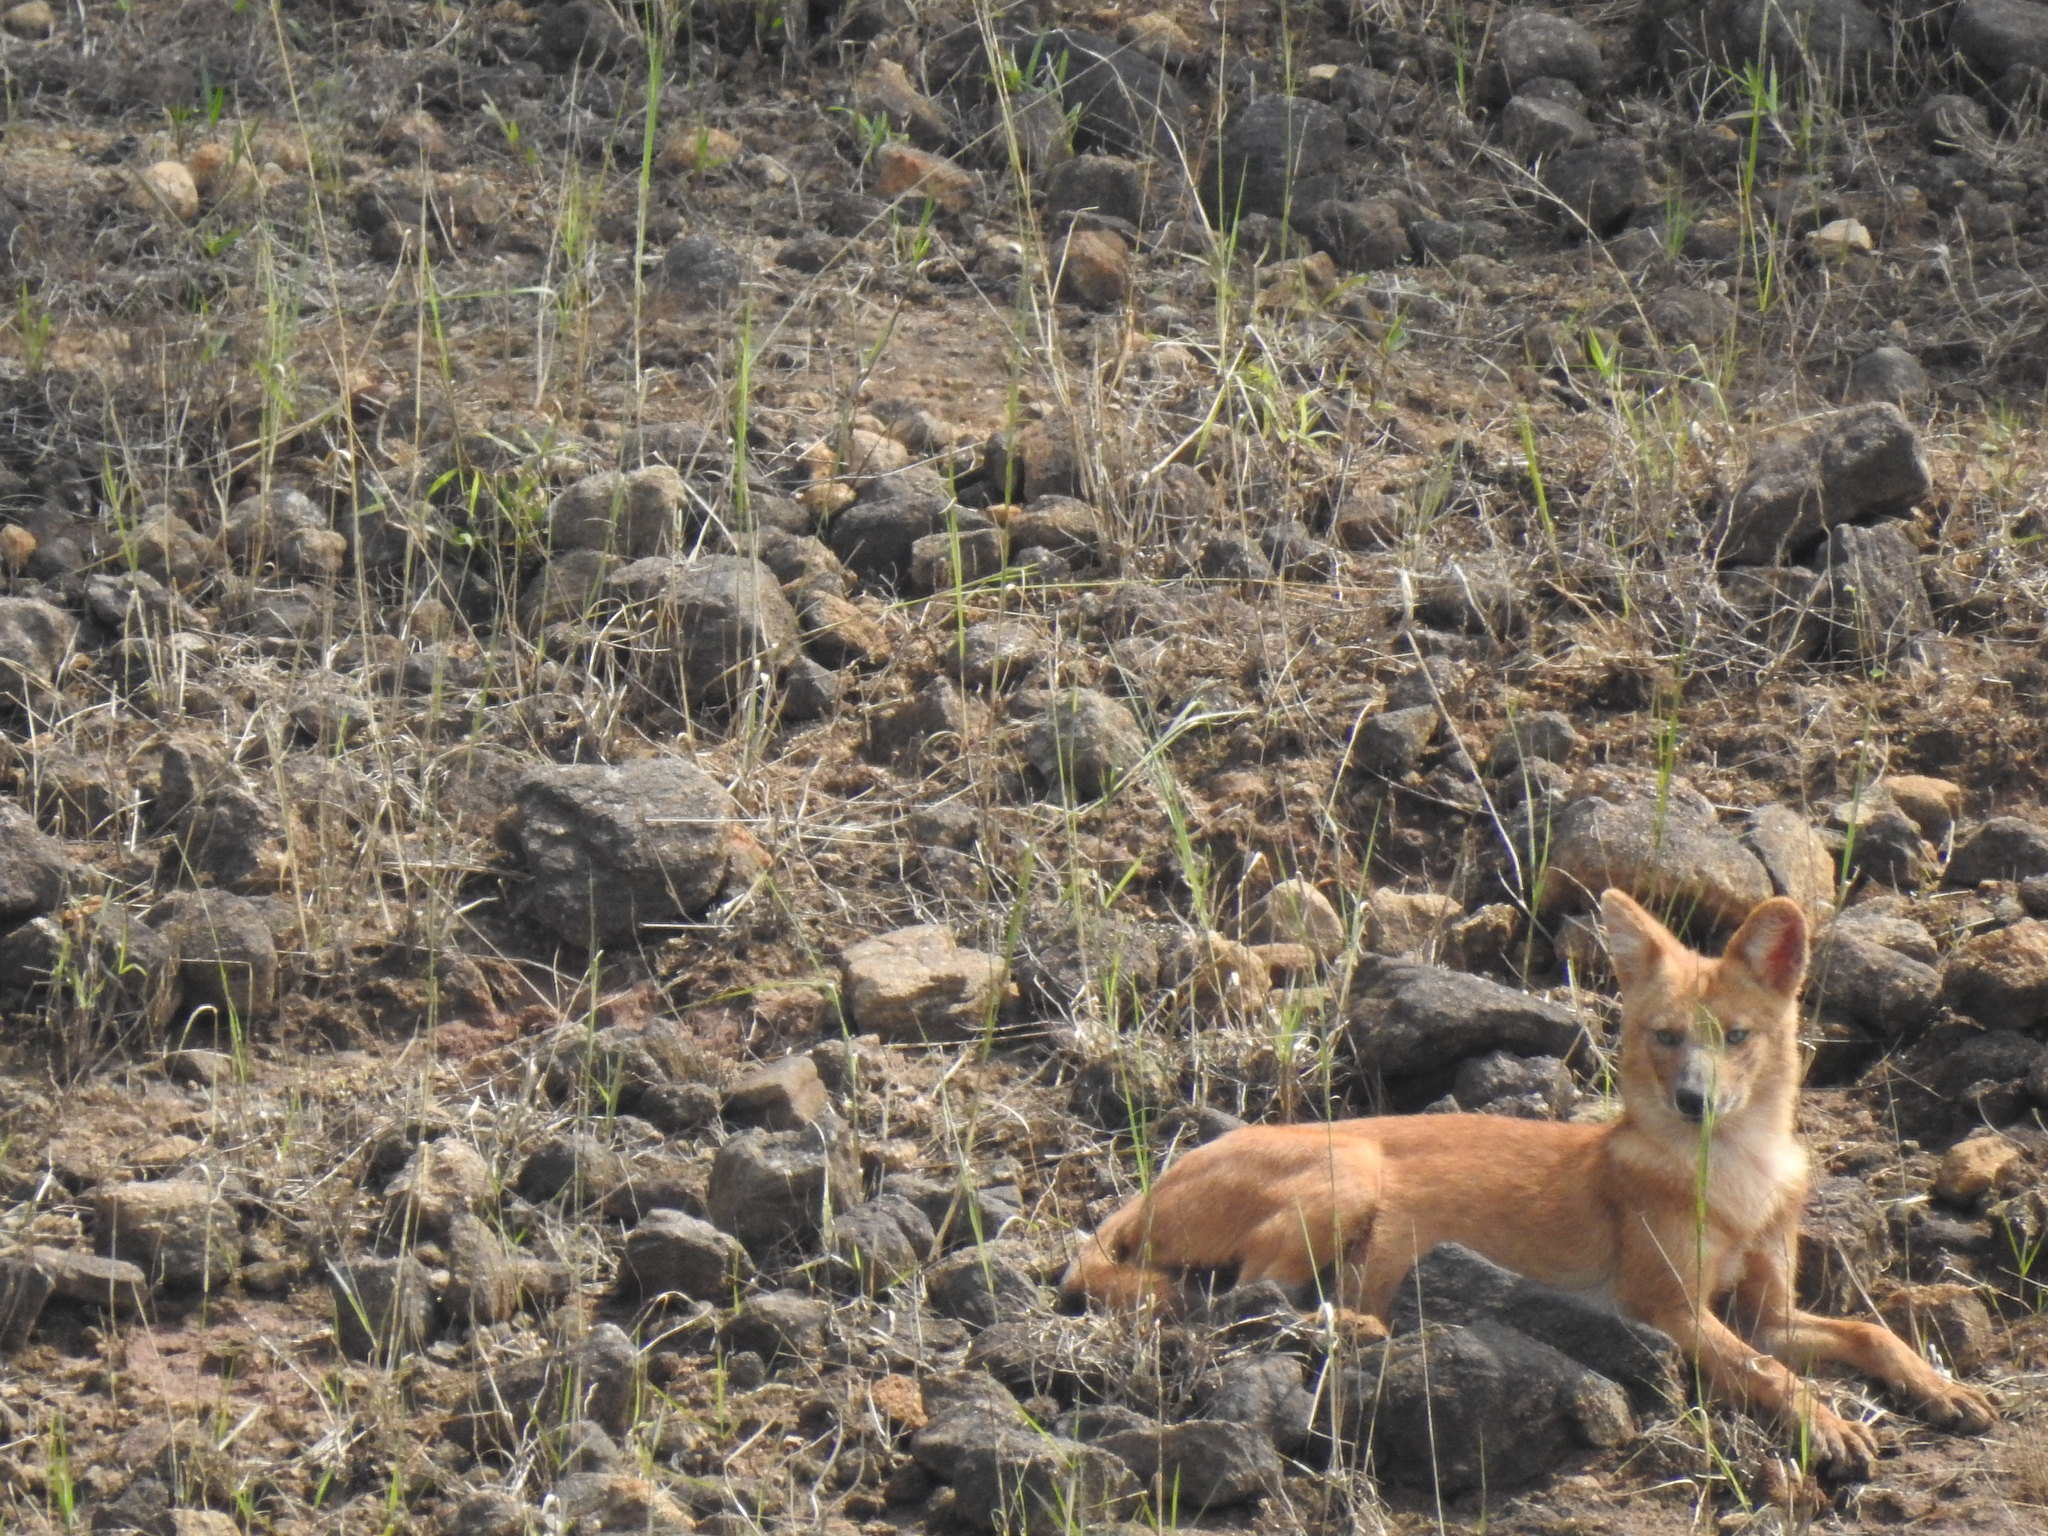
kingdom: Animalia
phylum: Chordata
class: Mammalia
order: Carnivora
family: Canidae
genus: Cuon
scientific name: Cuon alpinus
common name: Dhole
